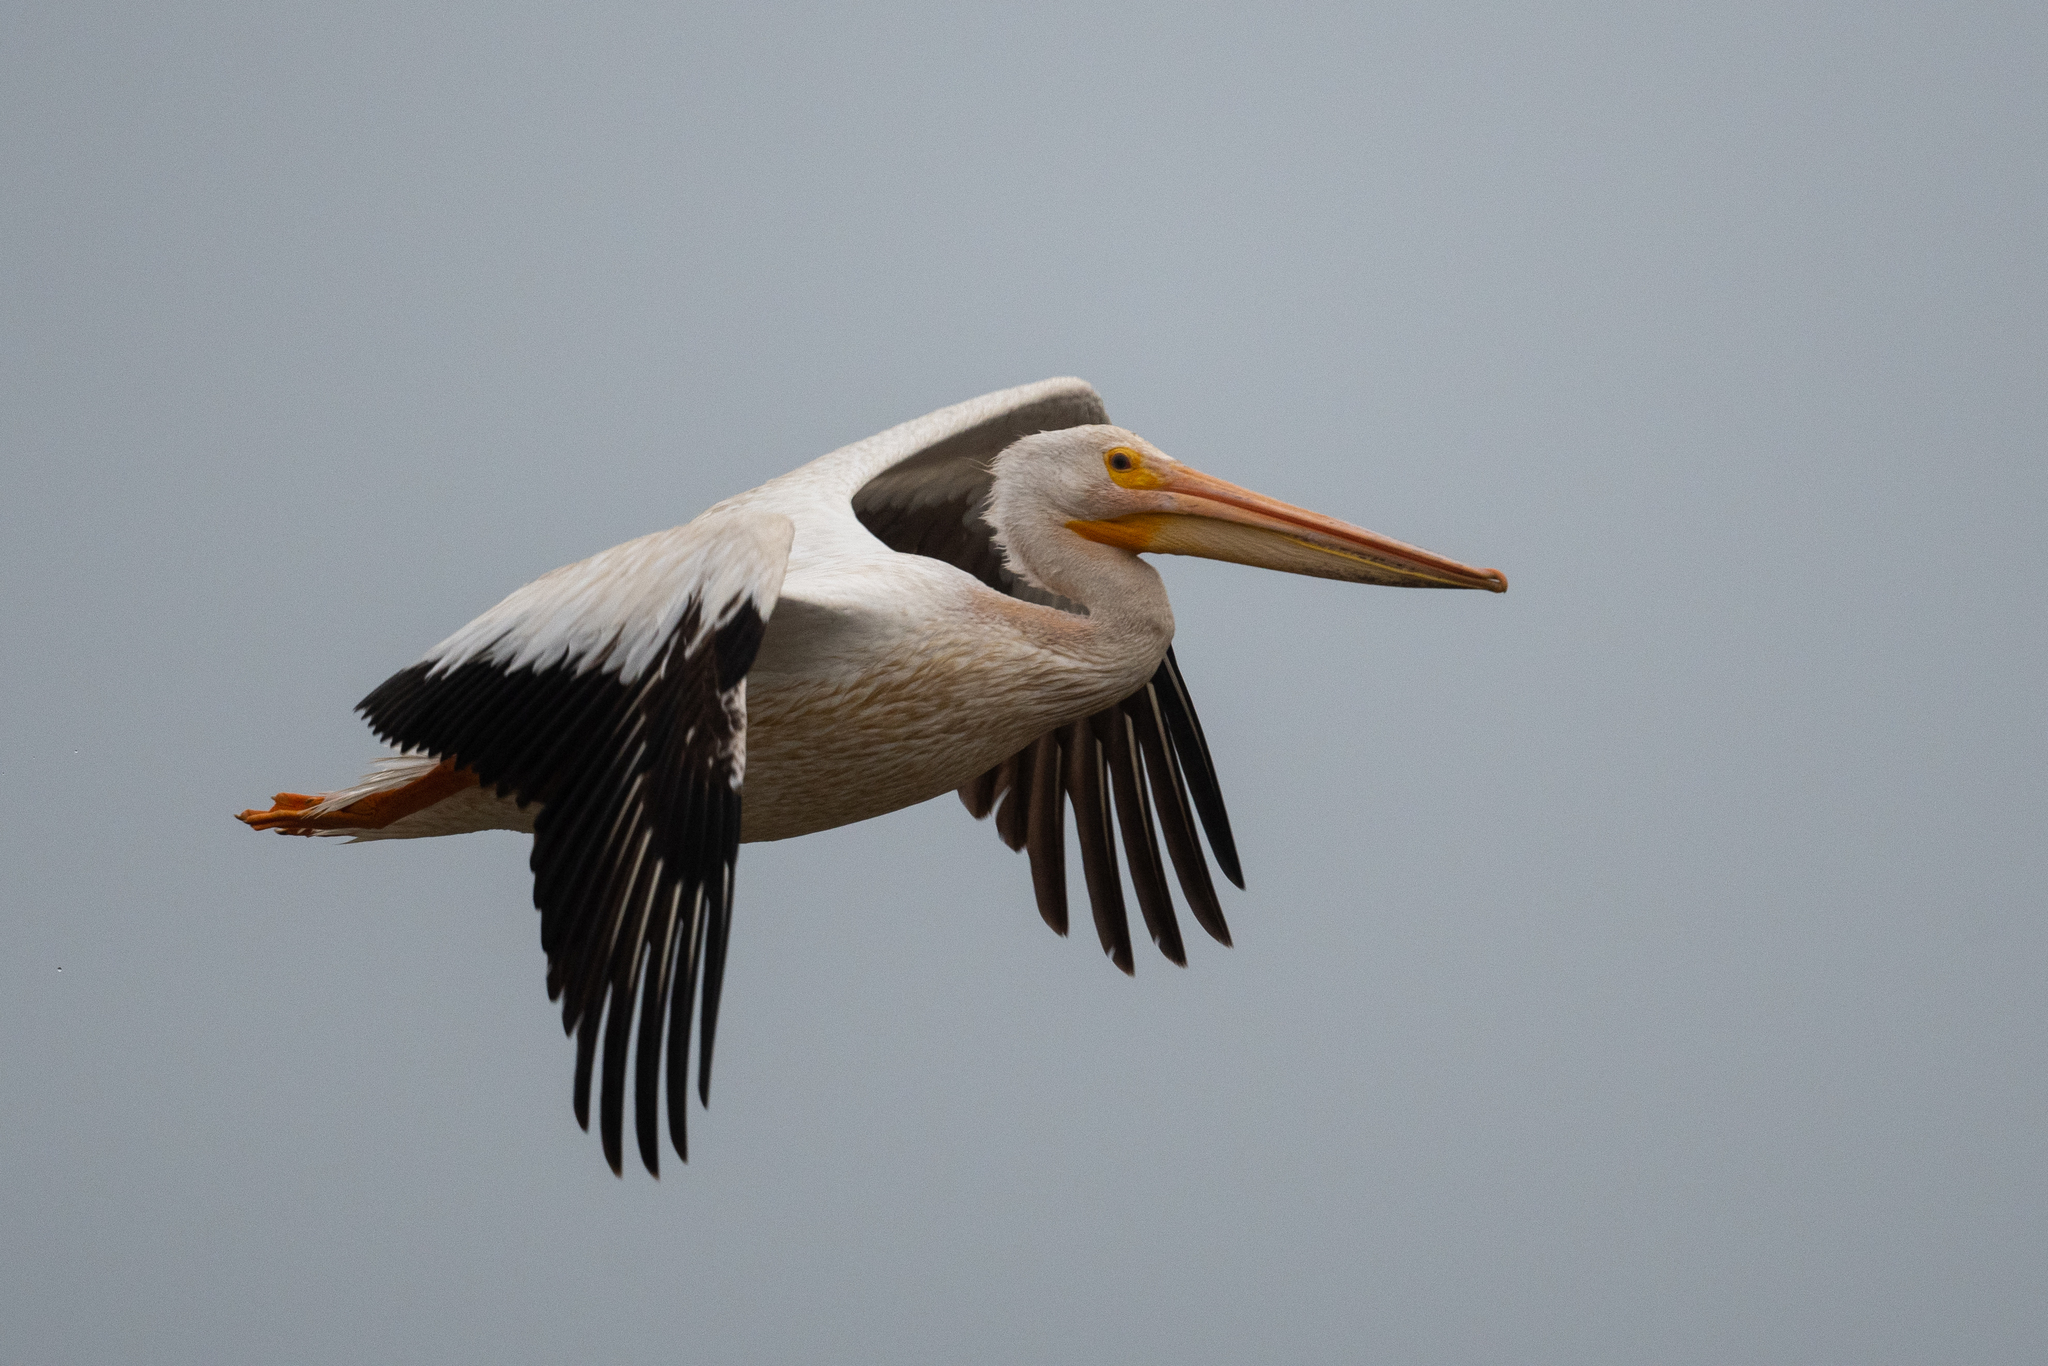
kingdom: Animalia
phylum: Chordata
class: Aves
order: Pelecaniformes
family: Pelecanidae
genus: Pelecanus
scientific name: Pelecanus erythrorhynchos
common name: American white pelican
